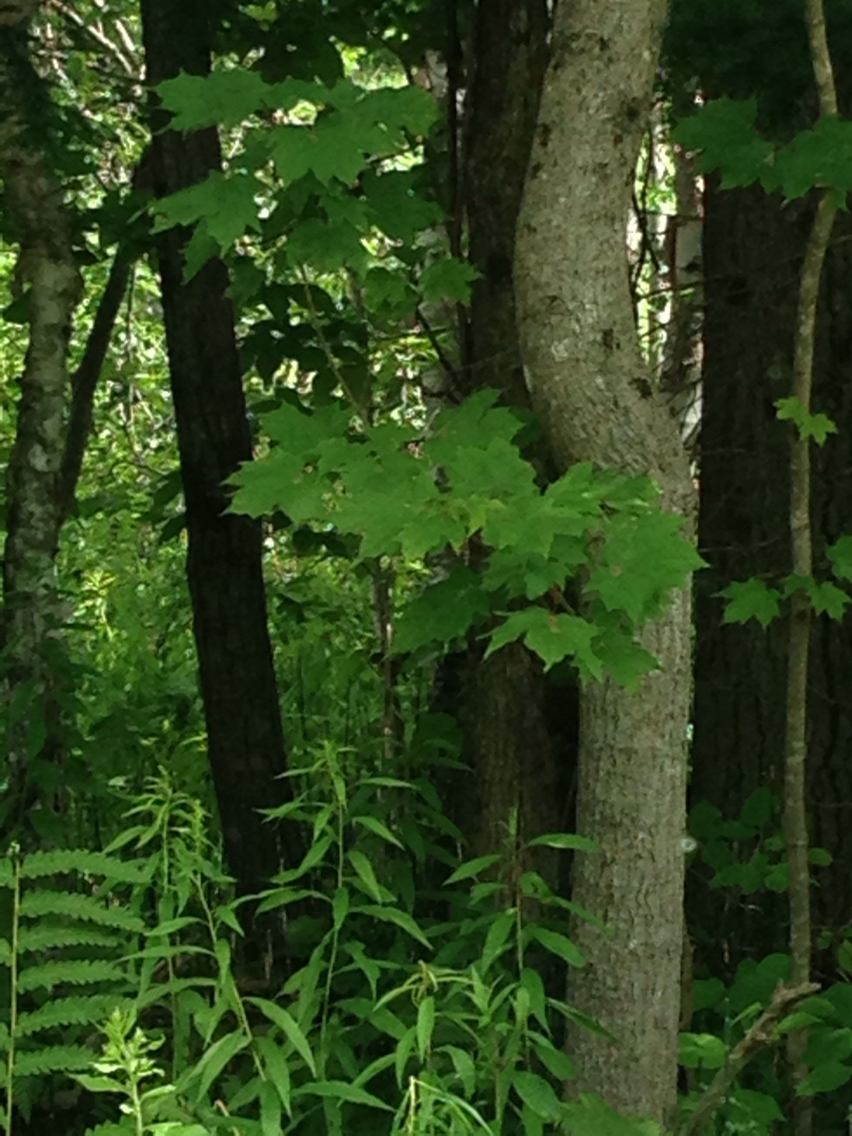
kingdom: Plantae
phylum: Tracheophyta
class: Magnoliopsida
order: Sapindales
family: Sapindaceae
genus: Acer
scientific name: Acer saccharum
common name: Sugar maple
